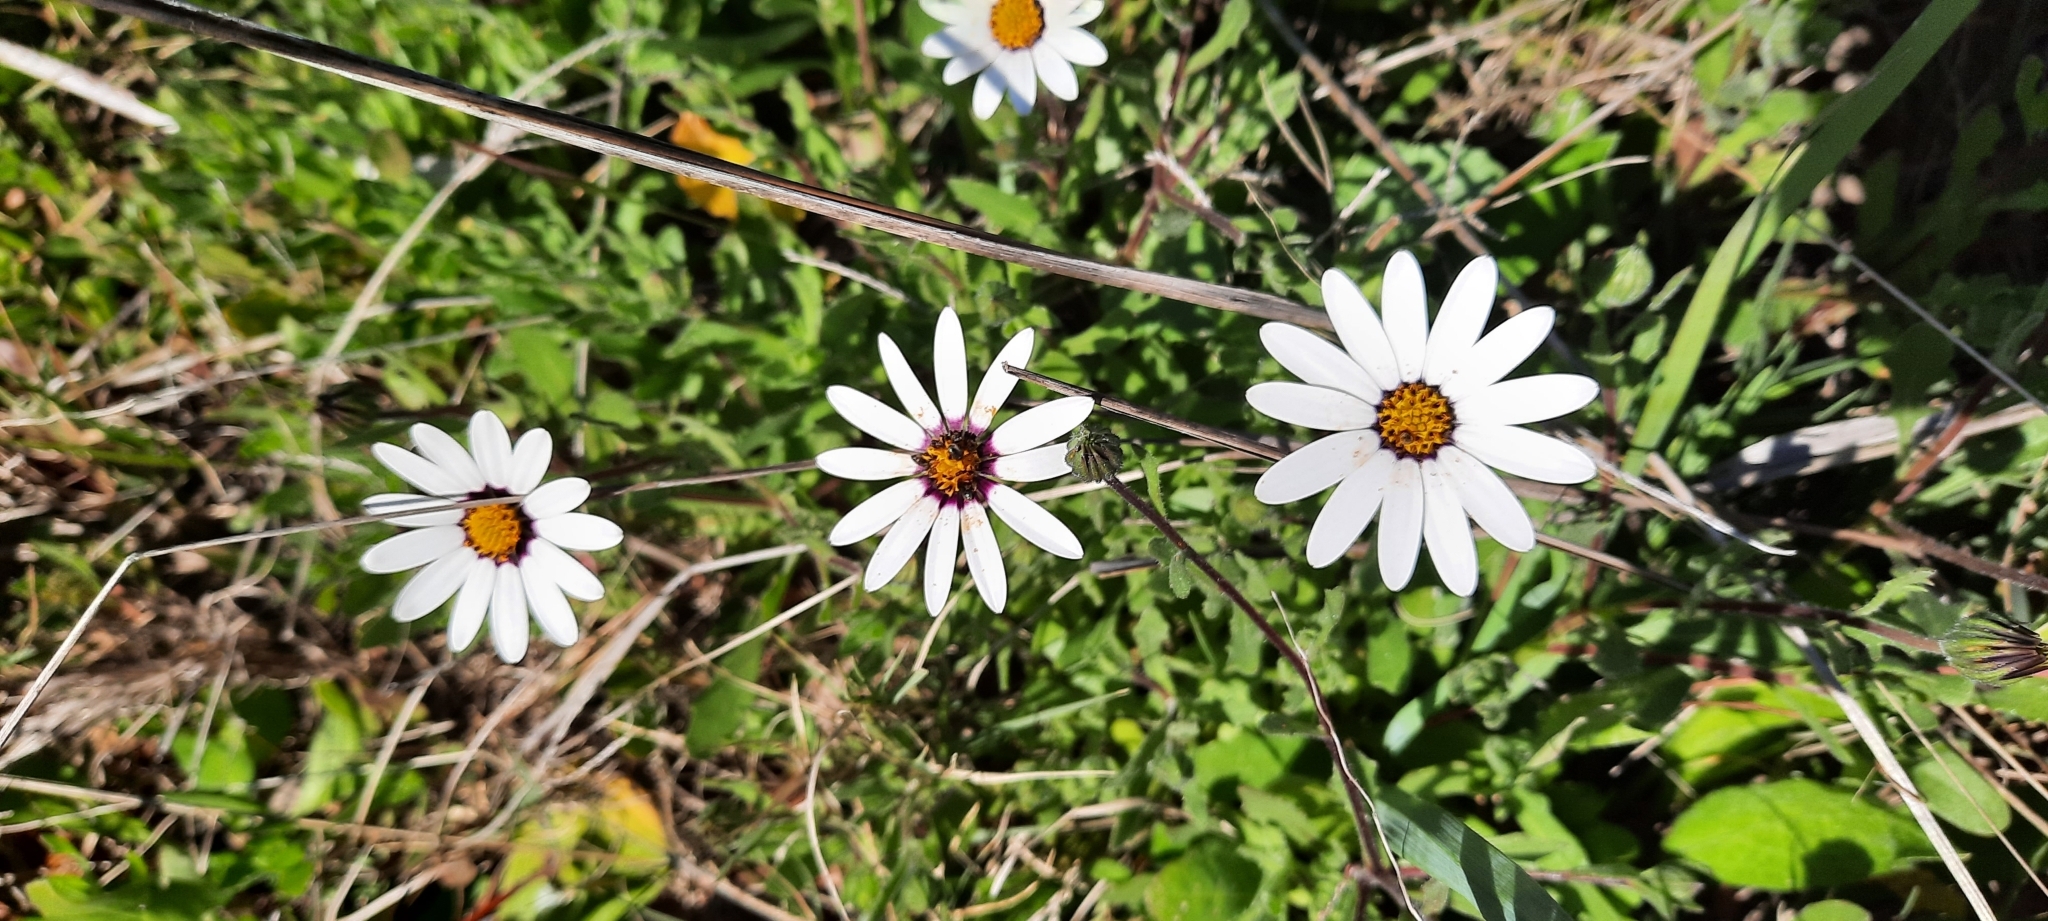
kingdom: Plantae
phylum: Tracheophyta
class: Magnoliopsida
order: Asterales
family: Asteraceae
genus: Dimorphotheca
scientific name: Dimorphotheca pluvialis
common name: Weather prophet
